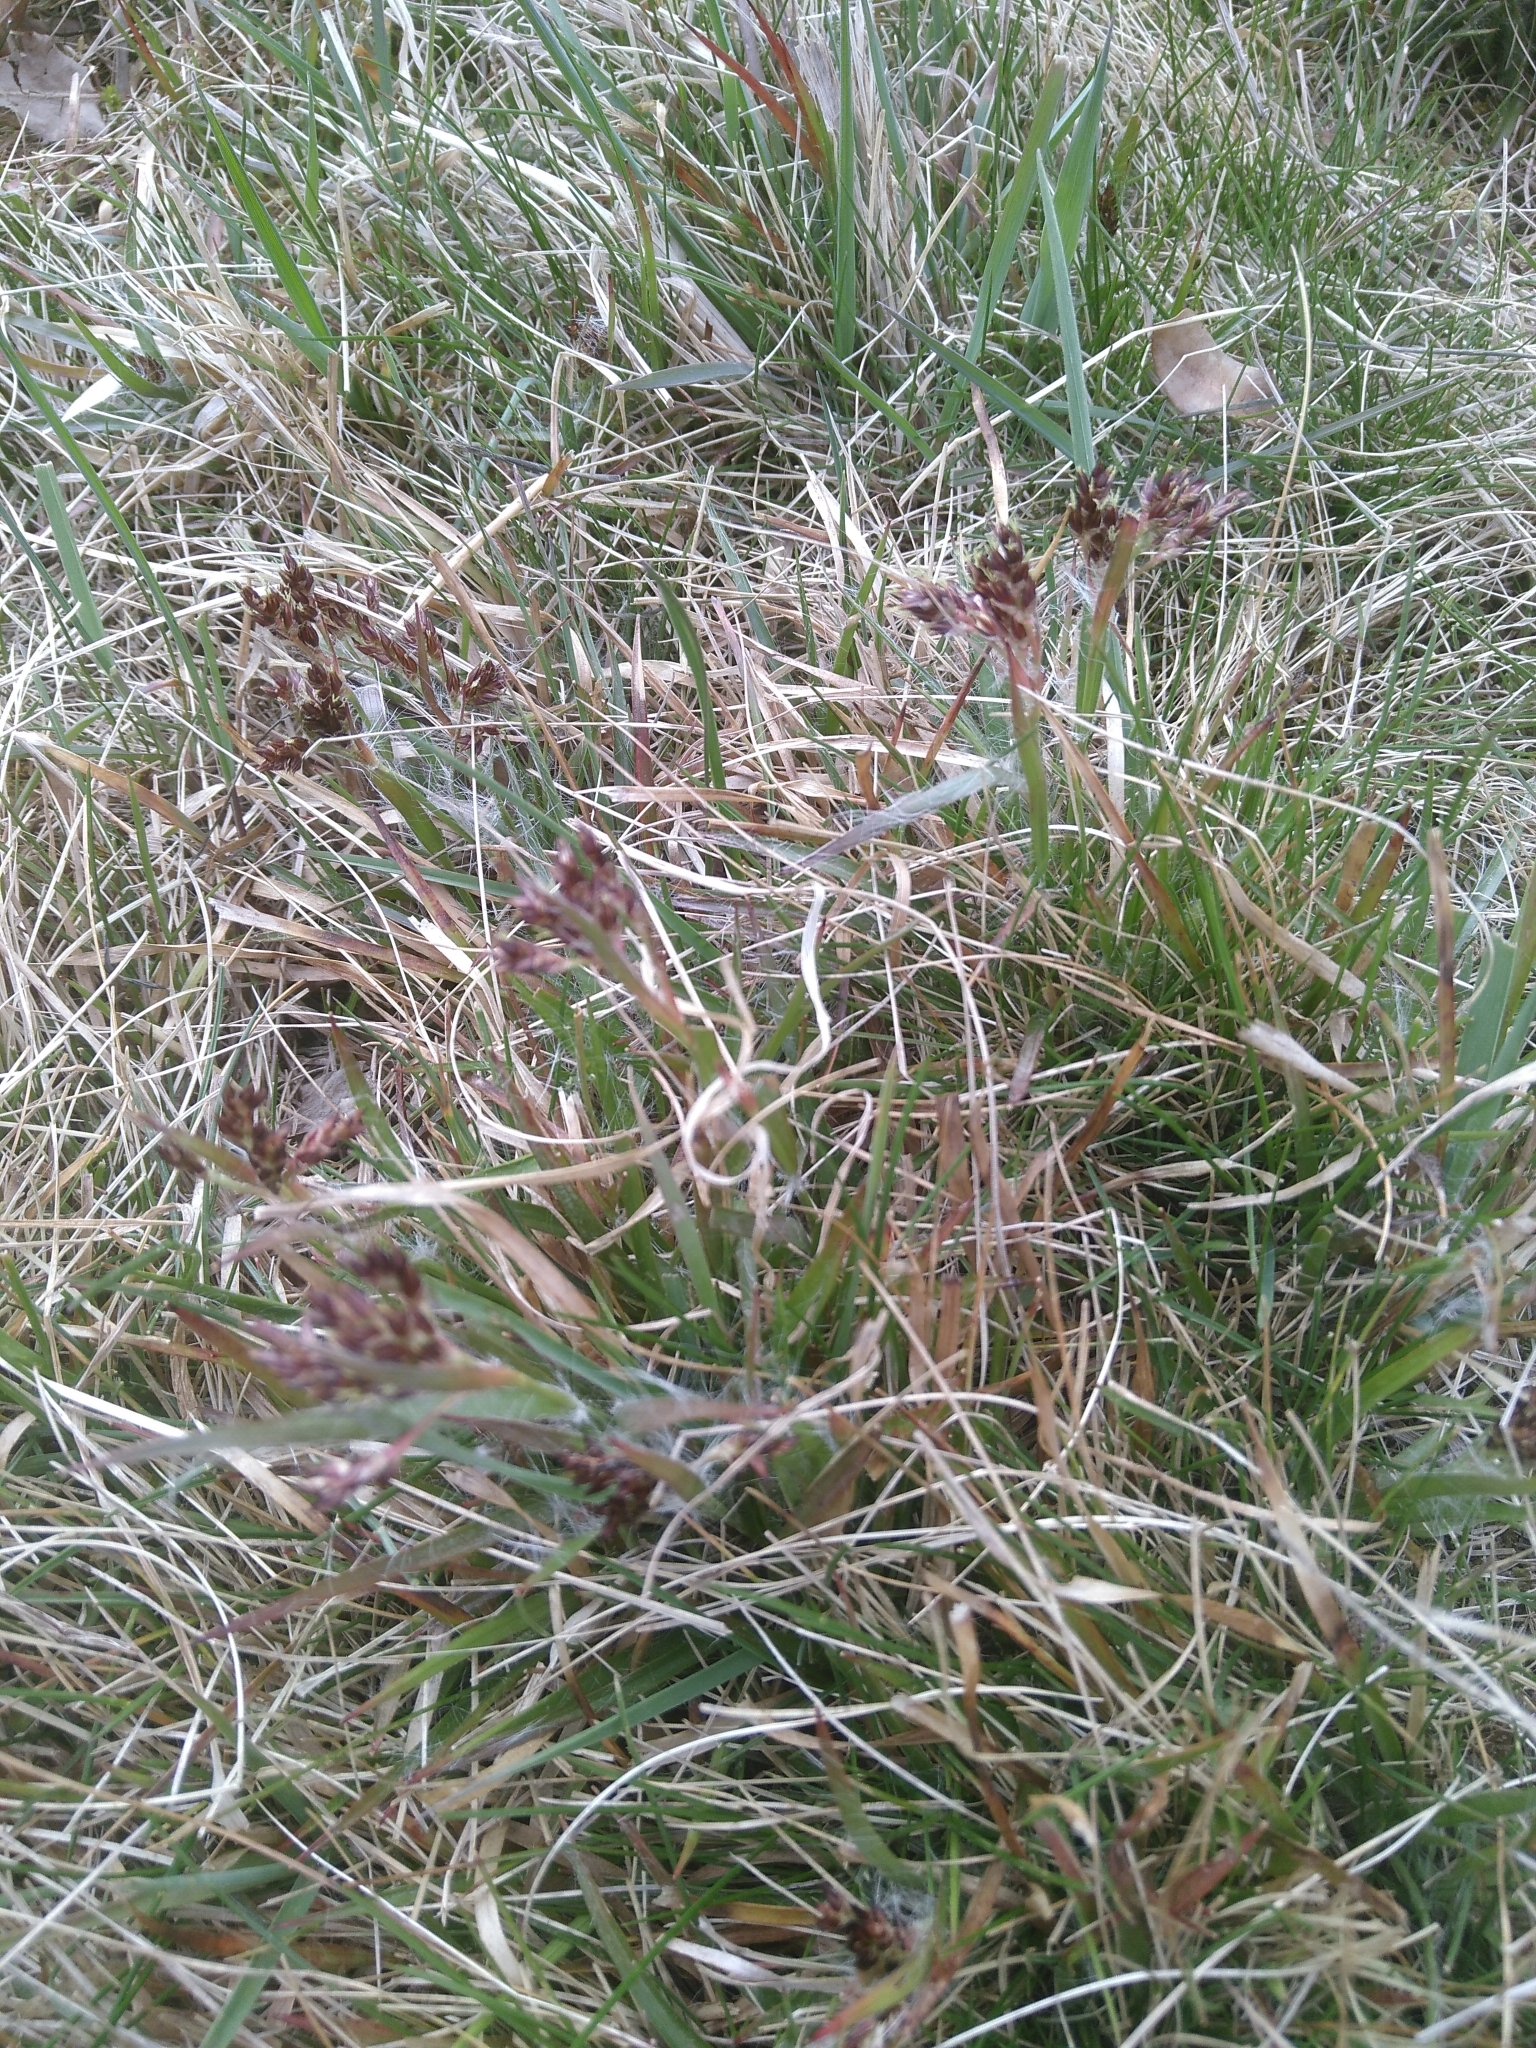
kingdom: Plantae
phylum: Tracheophyta
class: Liliopsida
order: Poales
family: Juncaceae
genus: Luzula
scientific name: Luzula campestris
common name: Field wood-rush
